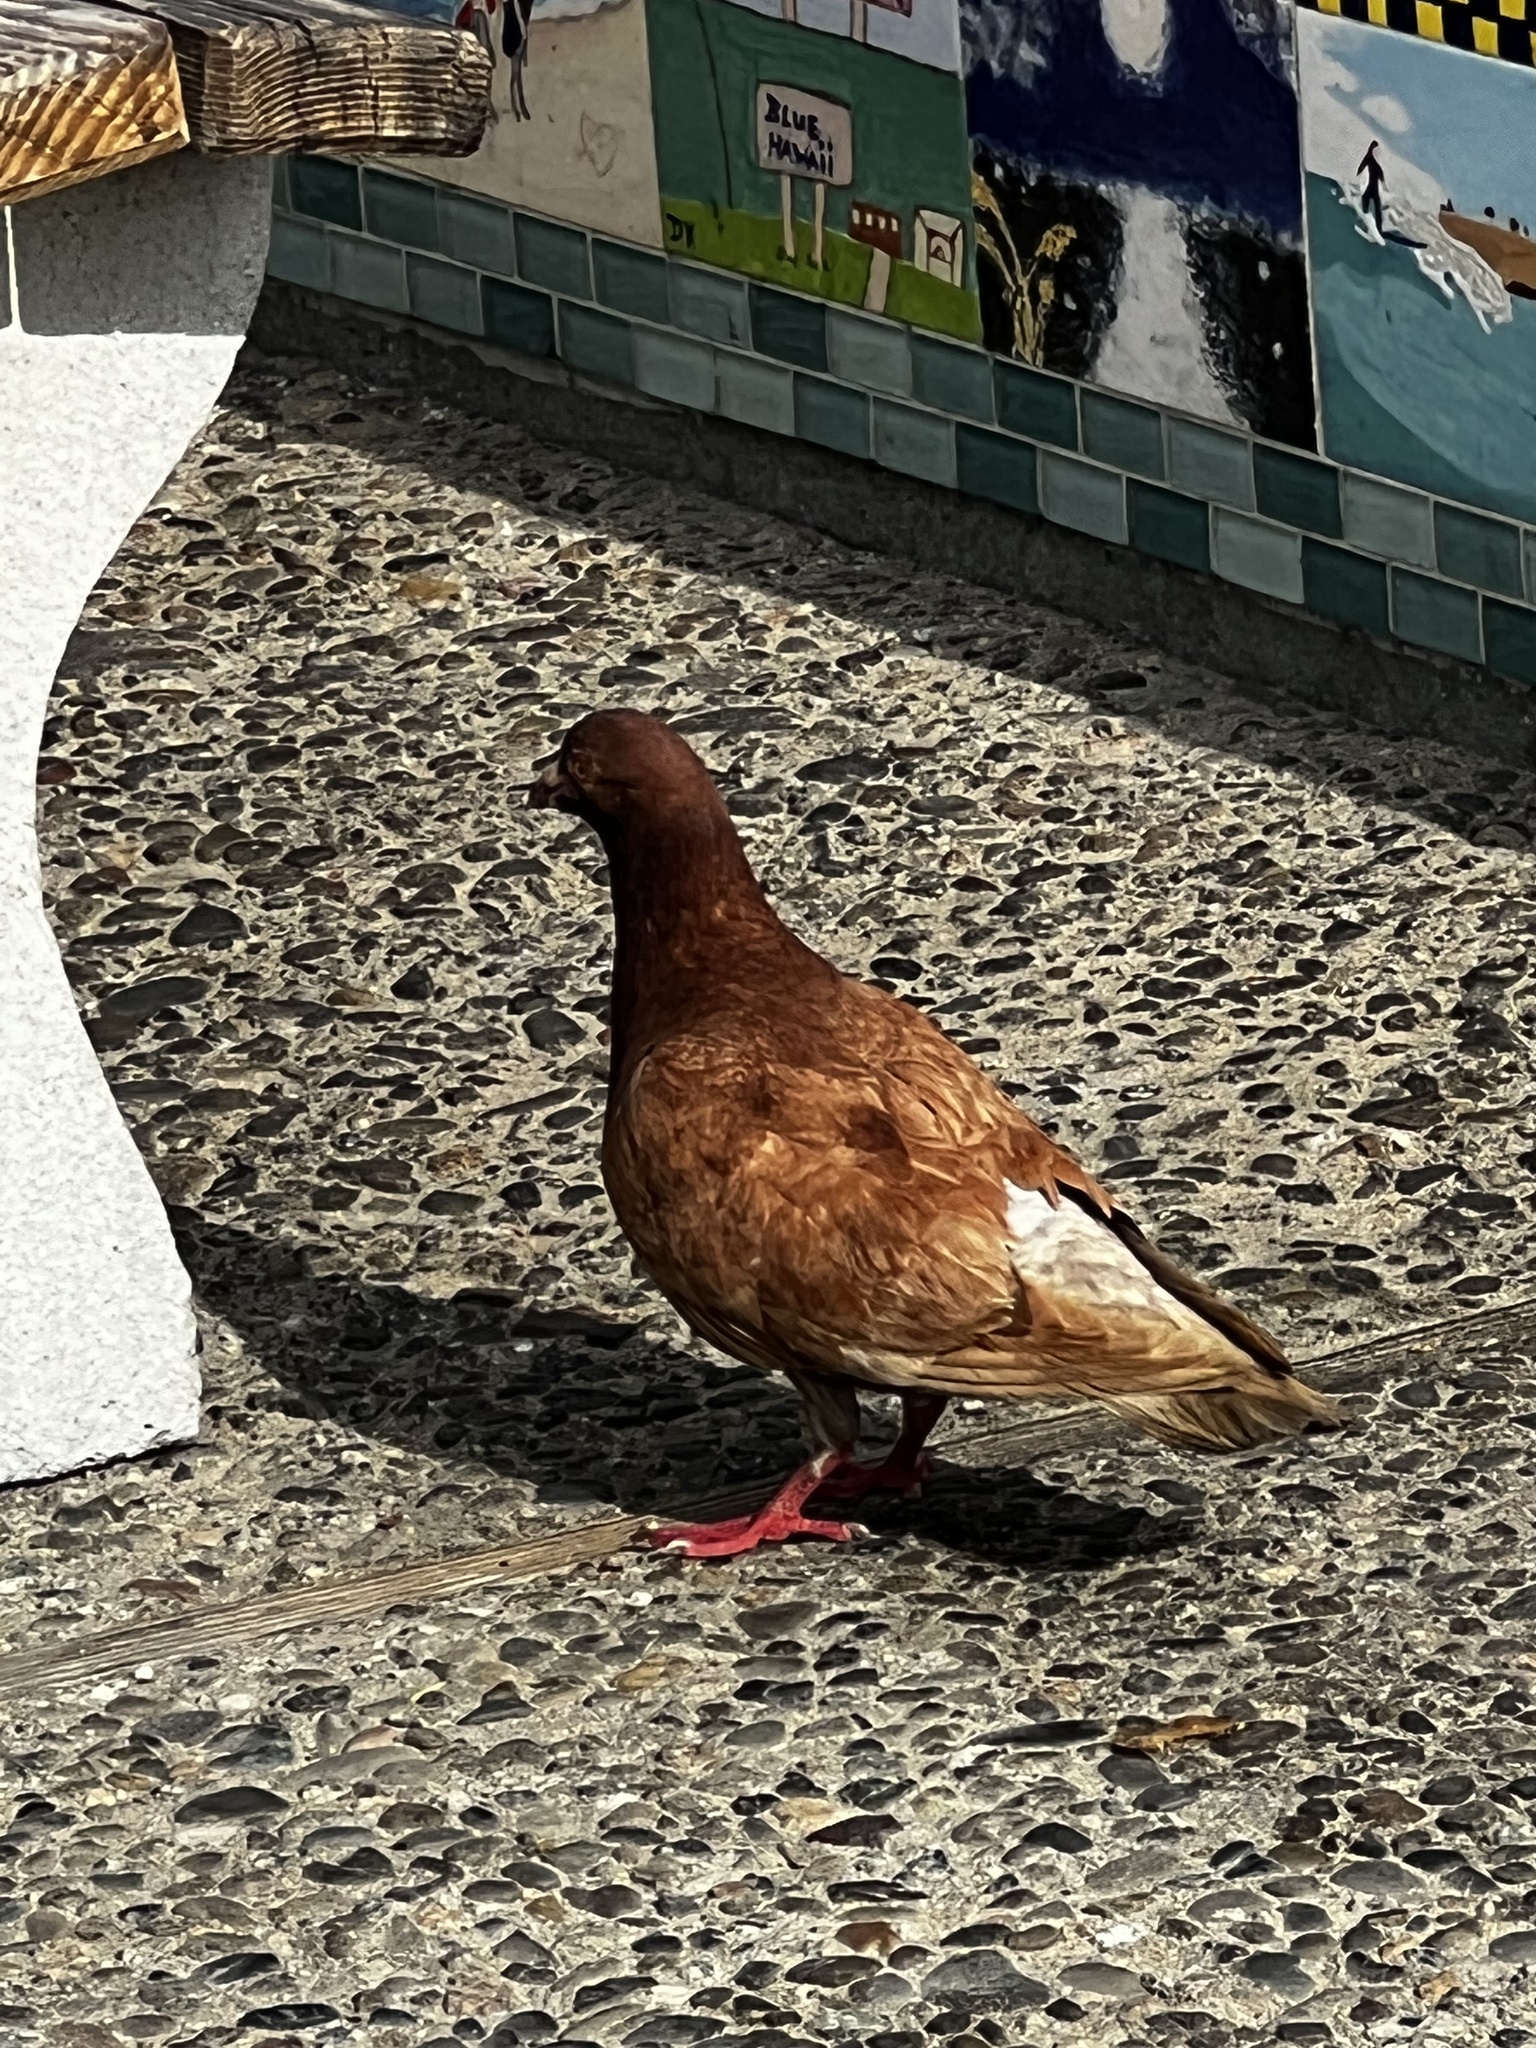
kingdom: Animalia
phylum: Chordata
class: Aves
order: Columbiformes
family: Columbidae
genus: Columba
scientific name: Columba livia
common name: Rock pigeon
